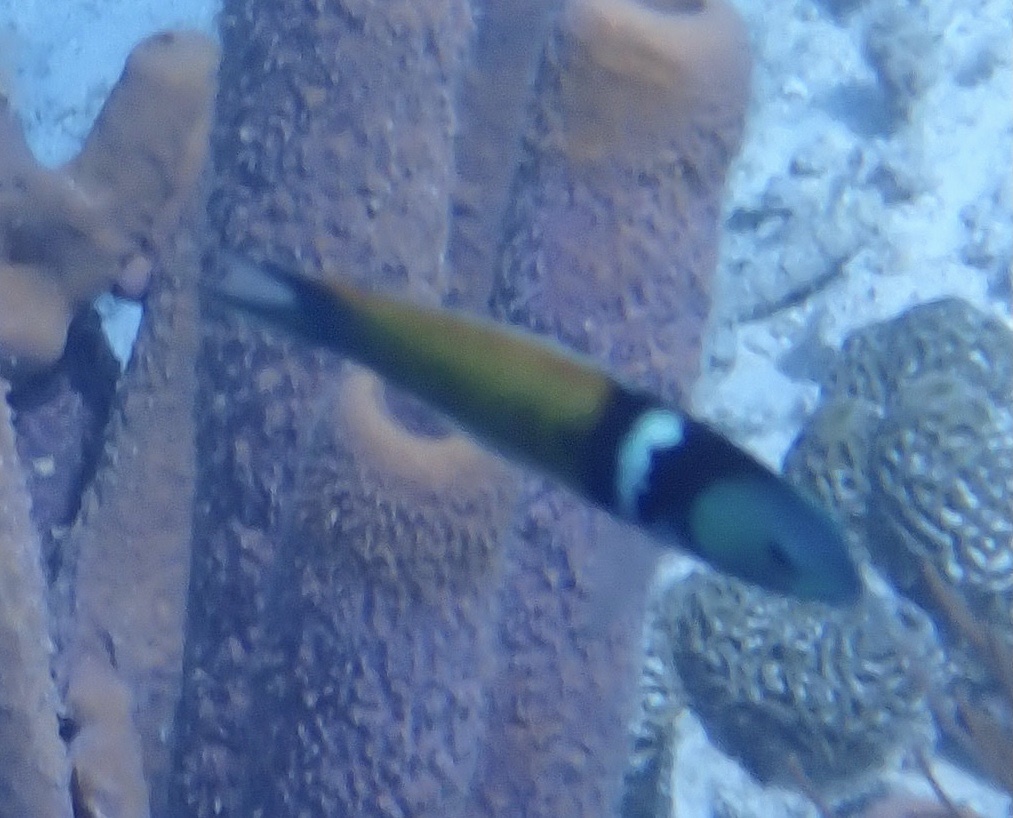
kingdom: Animalia
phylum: Chordata
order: Perciformes
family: Labridae
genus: Thalassoma
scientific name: Thalassoma bifasciatum
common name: Bluehead wrasse
